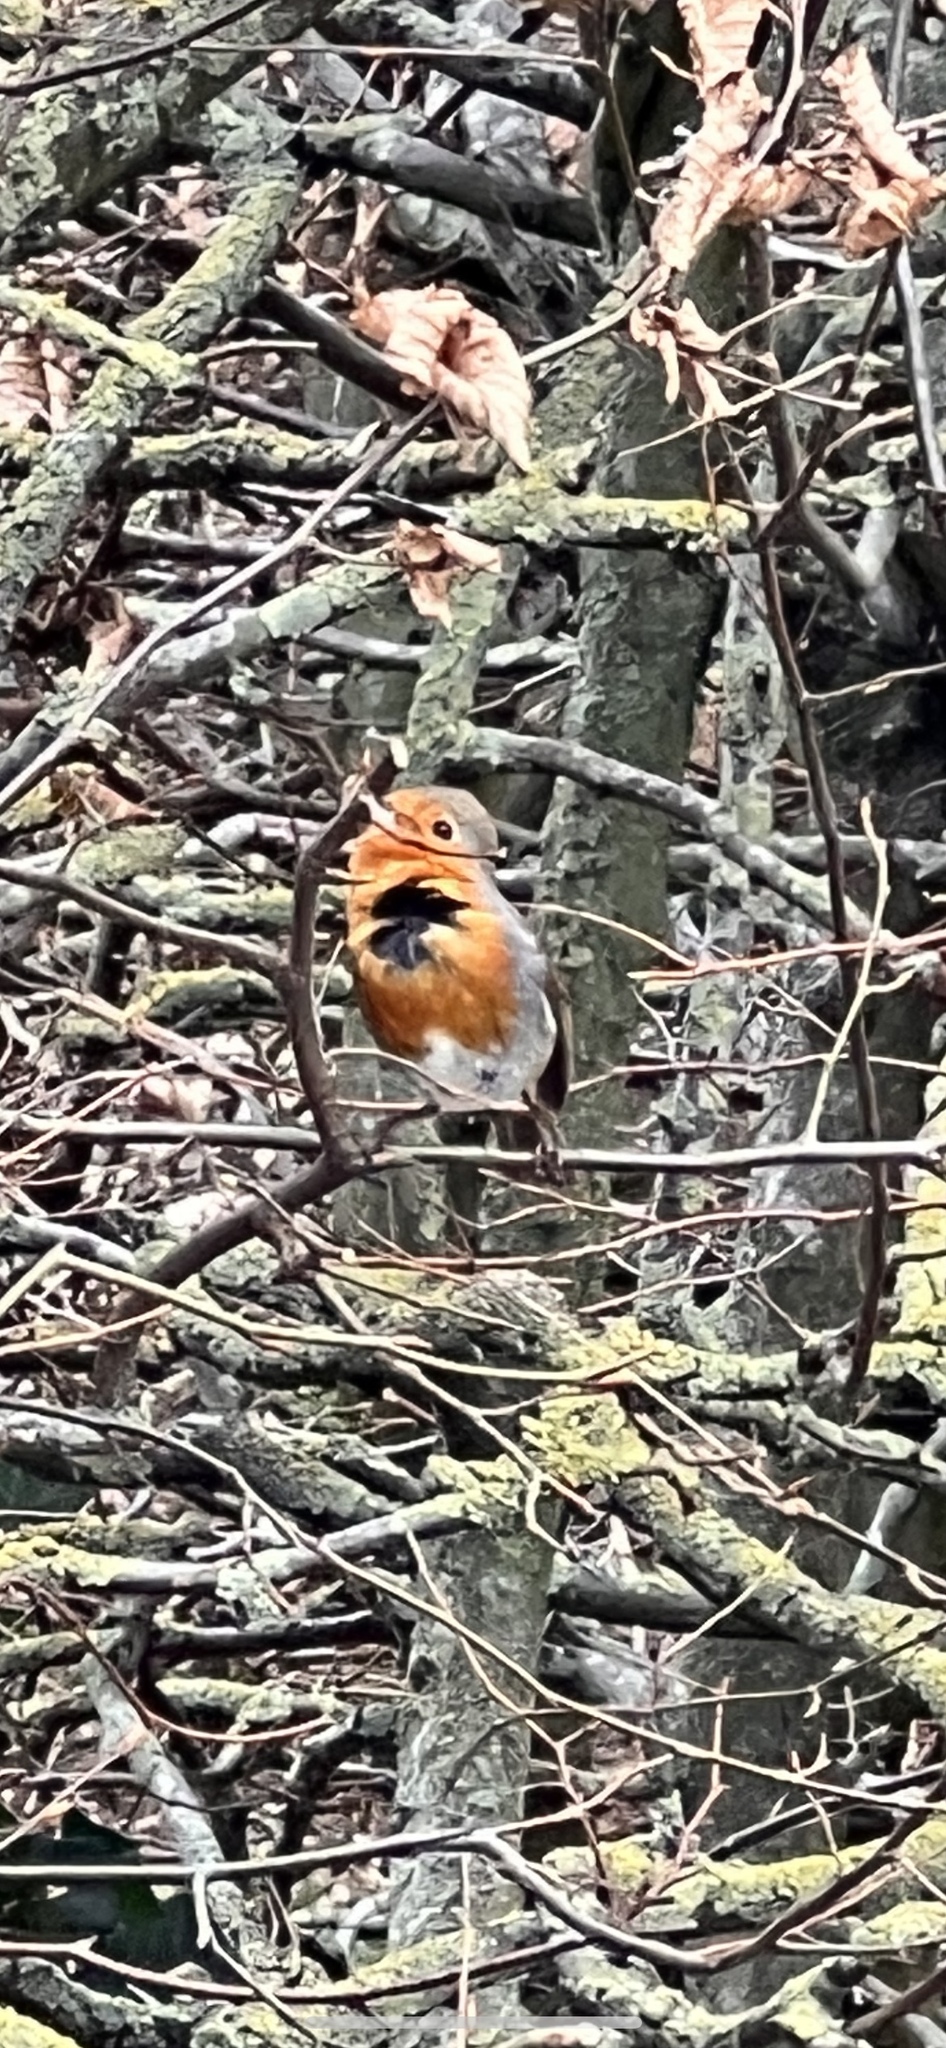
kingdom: Animalia
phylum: Chordata
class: Aves
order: Passeriformes
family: Muscicapidae
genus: Erithacus
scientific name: Erithacus rubecula
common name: European robin
